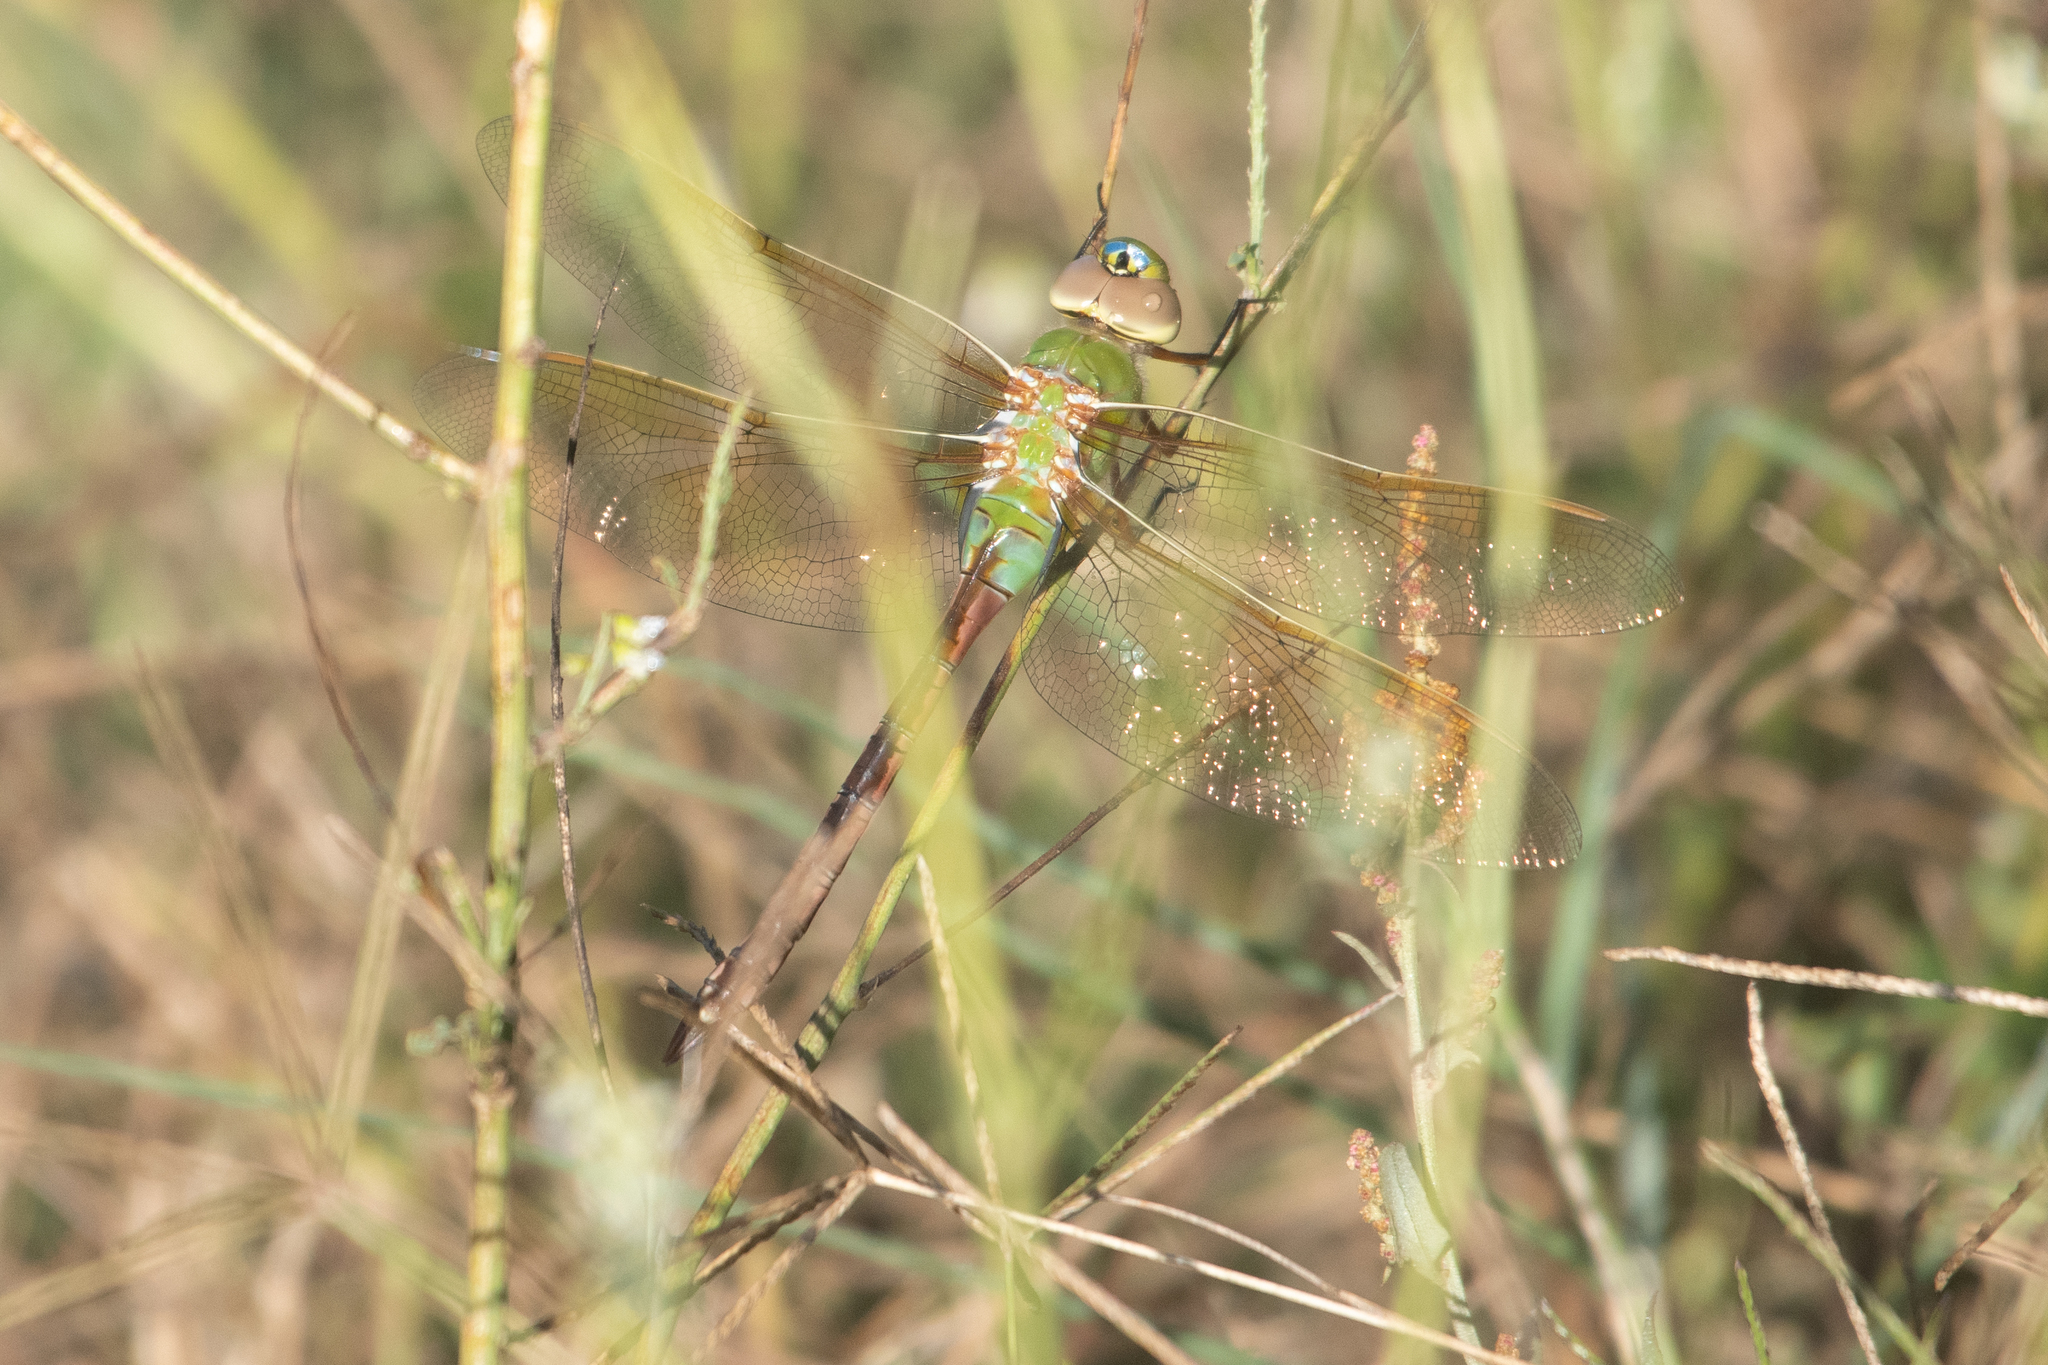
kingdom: Animalia
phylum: Arthropoda
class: Insecta
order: Odonata
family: Aeshnidae
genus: Anax
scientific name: Anax junius
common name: Common green darner
